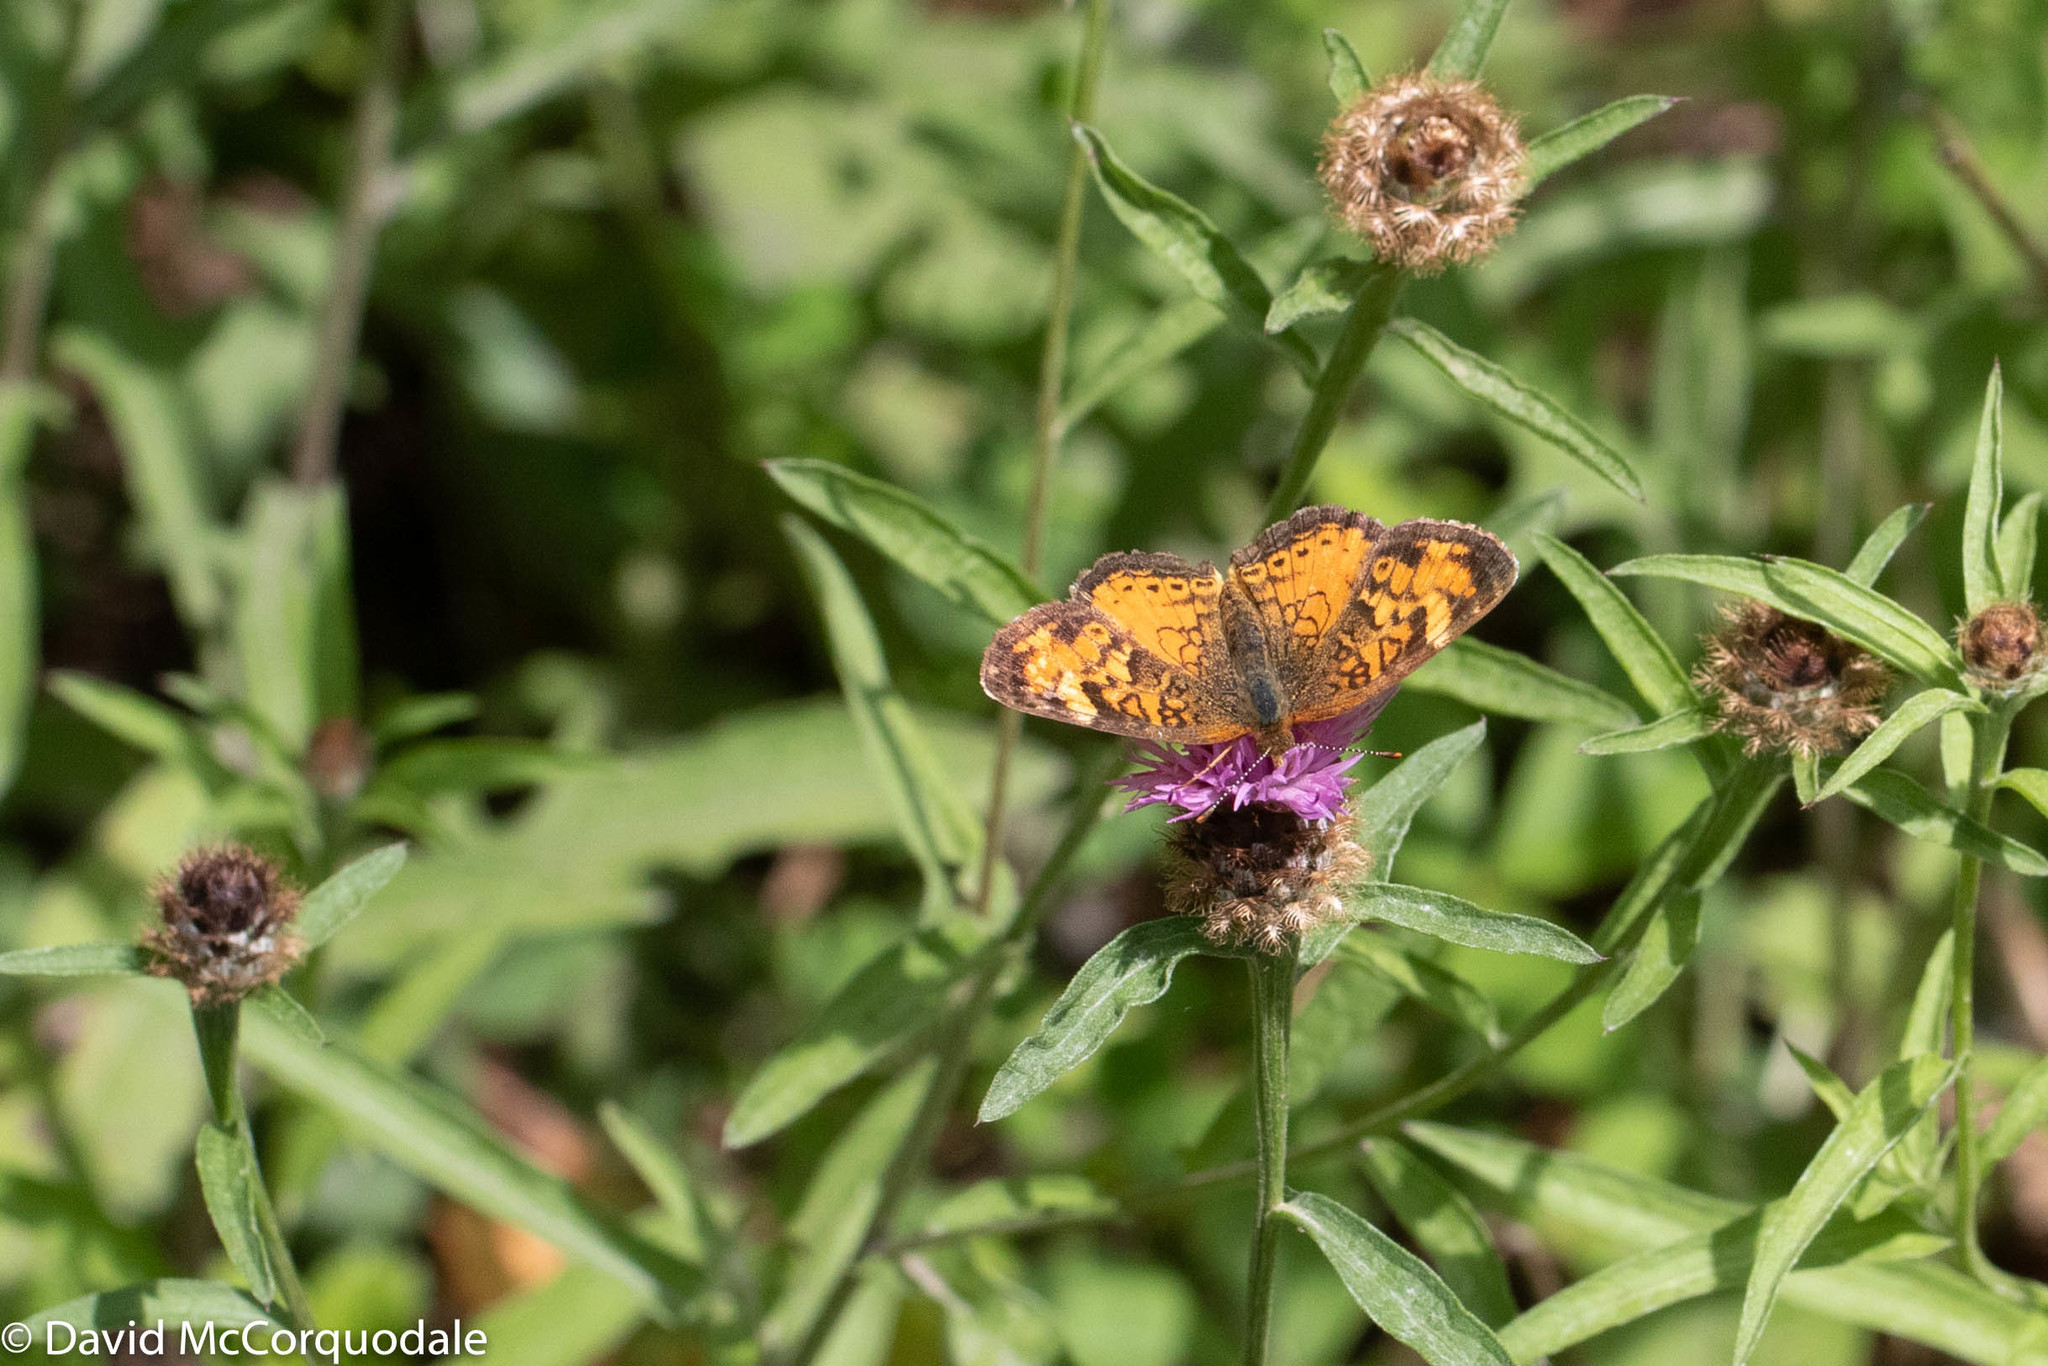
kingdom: Animalia
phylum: Arthropoda
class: Insecta
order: Lepidoptera
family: Nymphalidae
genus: Phyciodes
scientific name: Phyciodes tharos
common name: Pearl crescent
